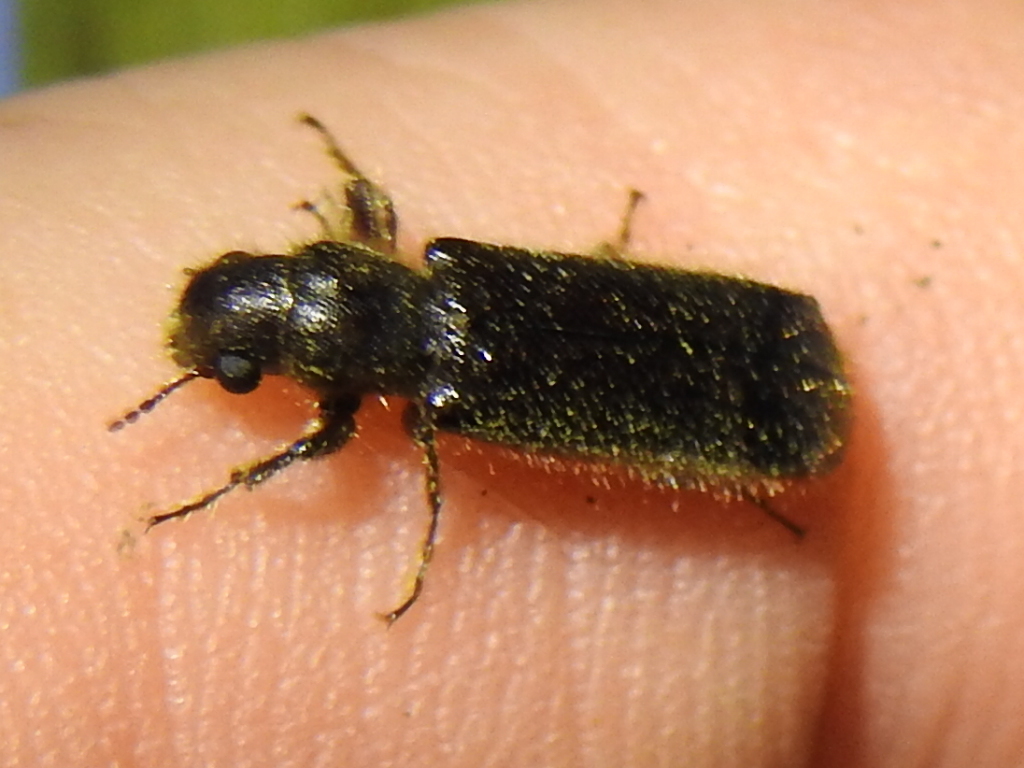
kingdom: Animalia
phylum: Arthropoda
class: Insecta
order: Coleoptera
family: Bostrichidae
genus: Melalgus
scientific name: Melalgus plicatus
